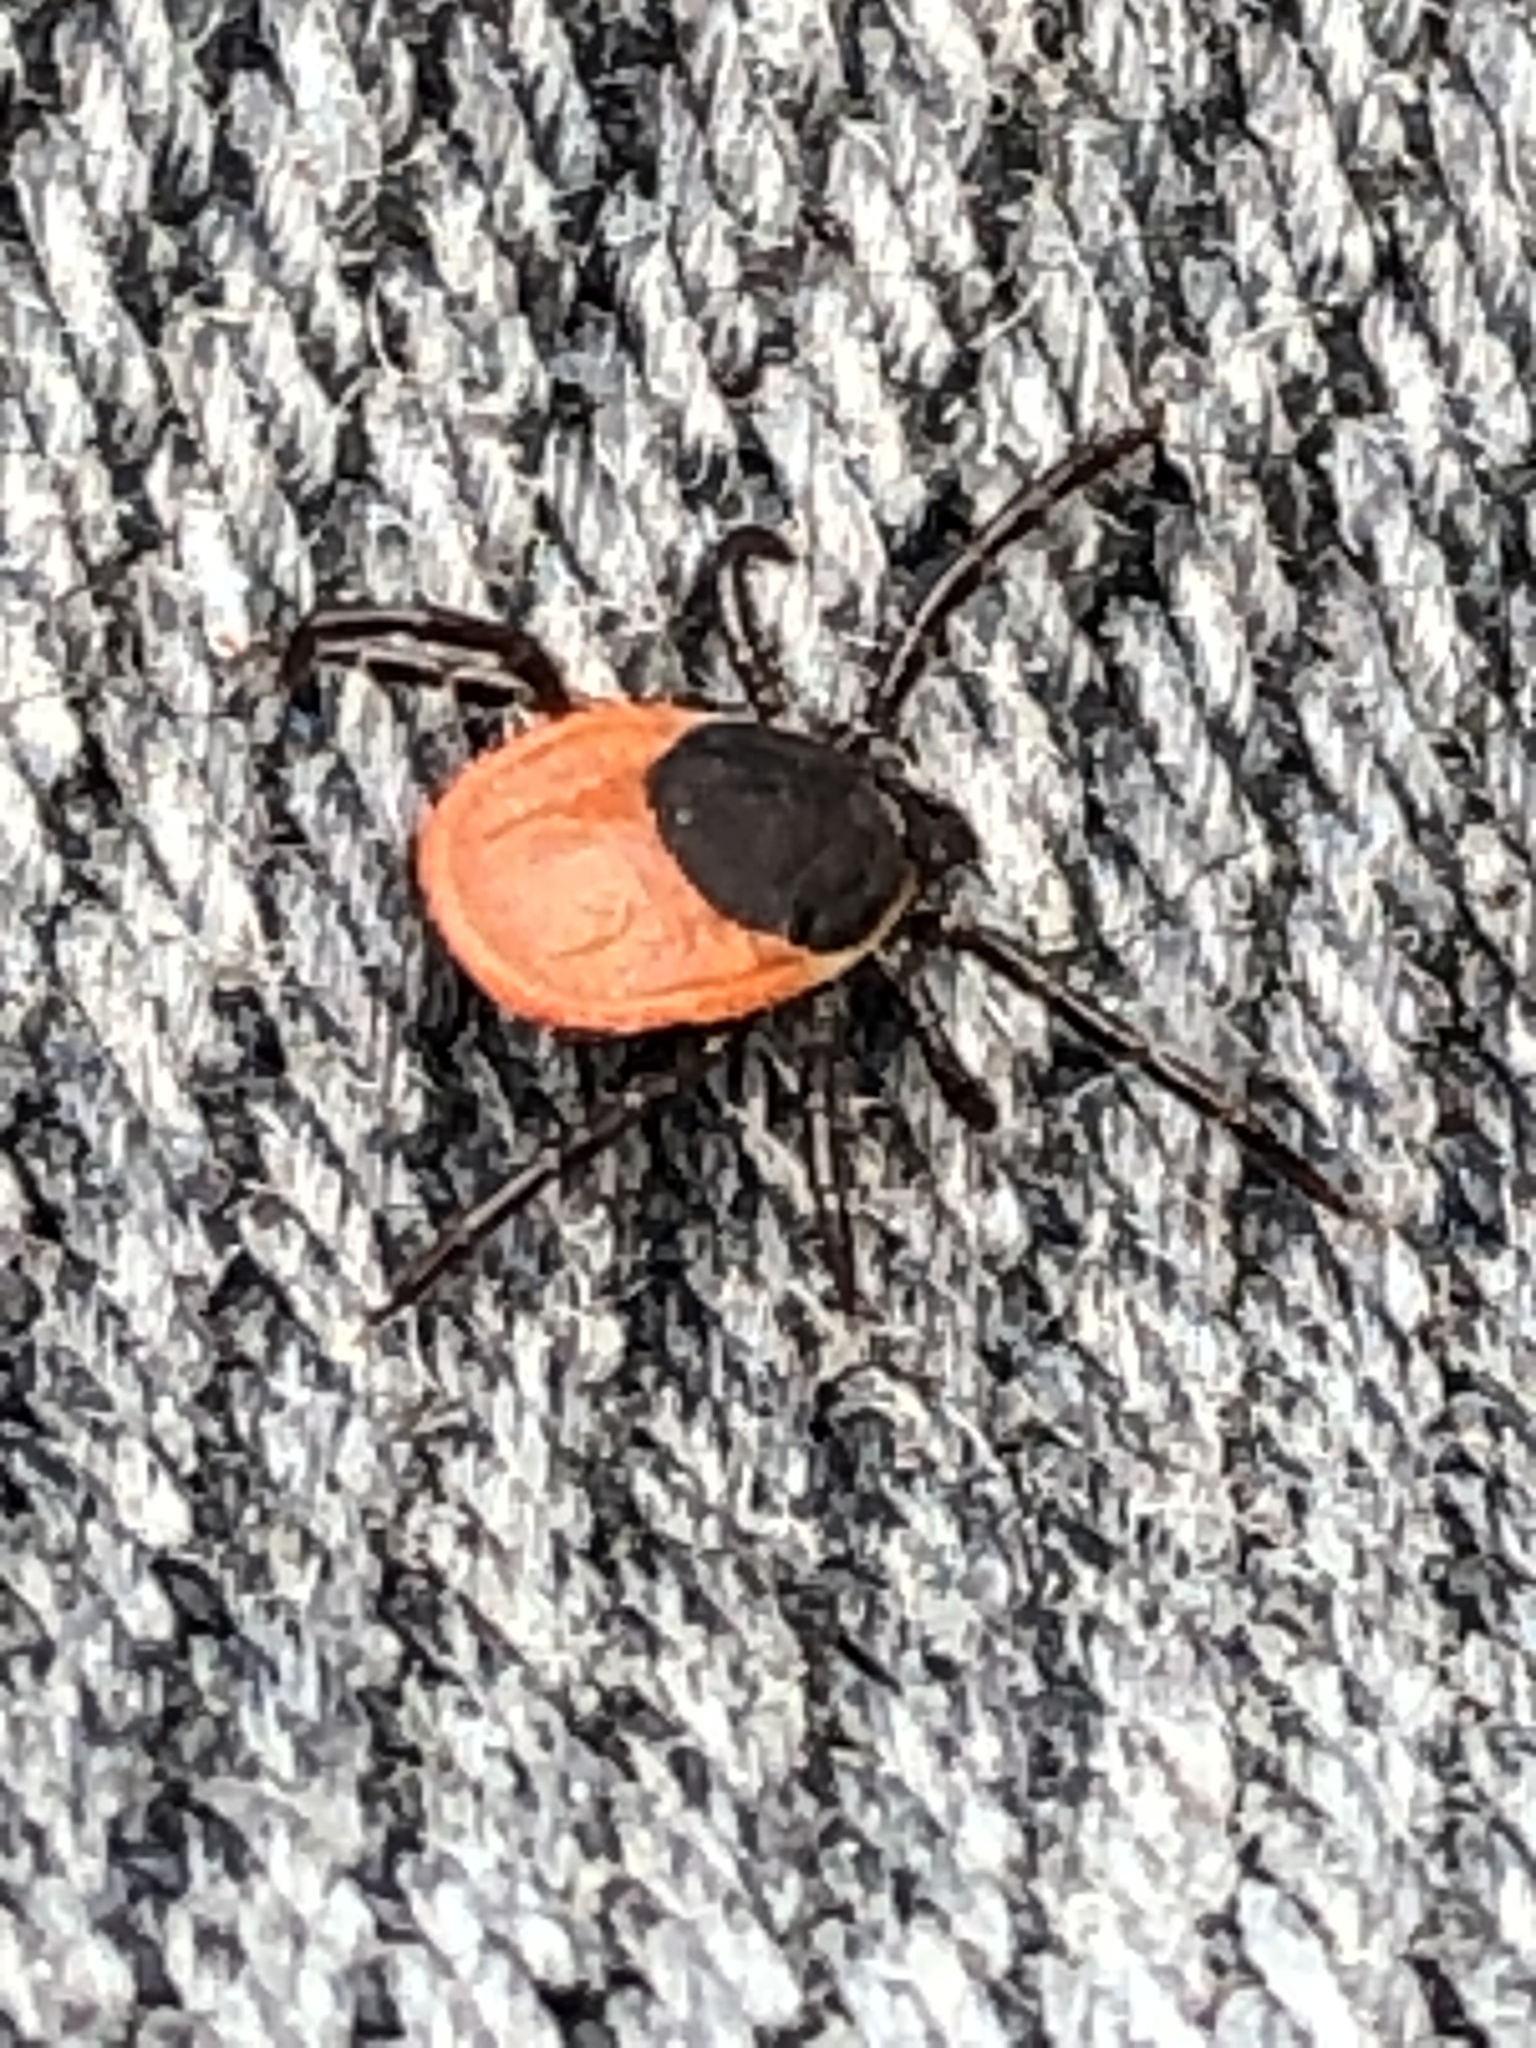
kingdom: Animalia
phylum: Arthropoda
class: Arachnida
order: Ixodida
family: Ixodidae
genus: Ixodes
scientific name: Ixodes ricinus
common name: Castor bean tick
